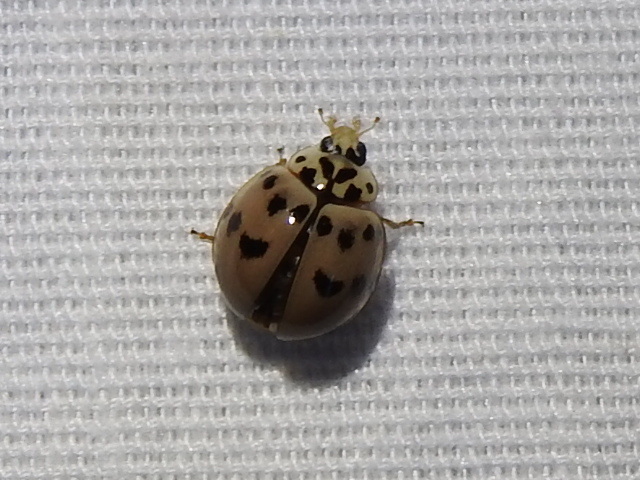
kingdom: Animalia
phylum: Arthropoda
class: Insecta
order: Coleoptera
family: Coccinellidae
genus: Olla
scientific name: Olla v-nigrum
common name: Ashy gray lady beetle
